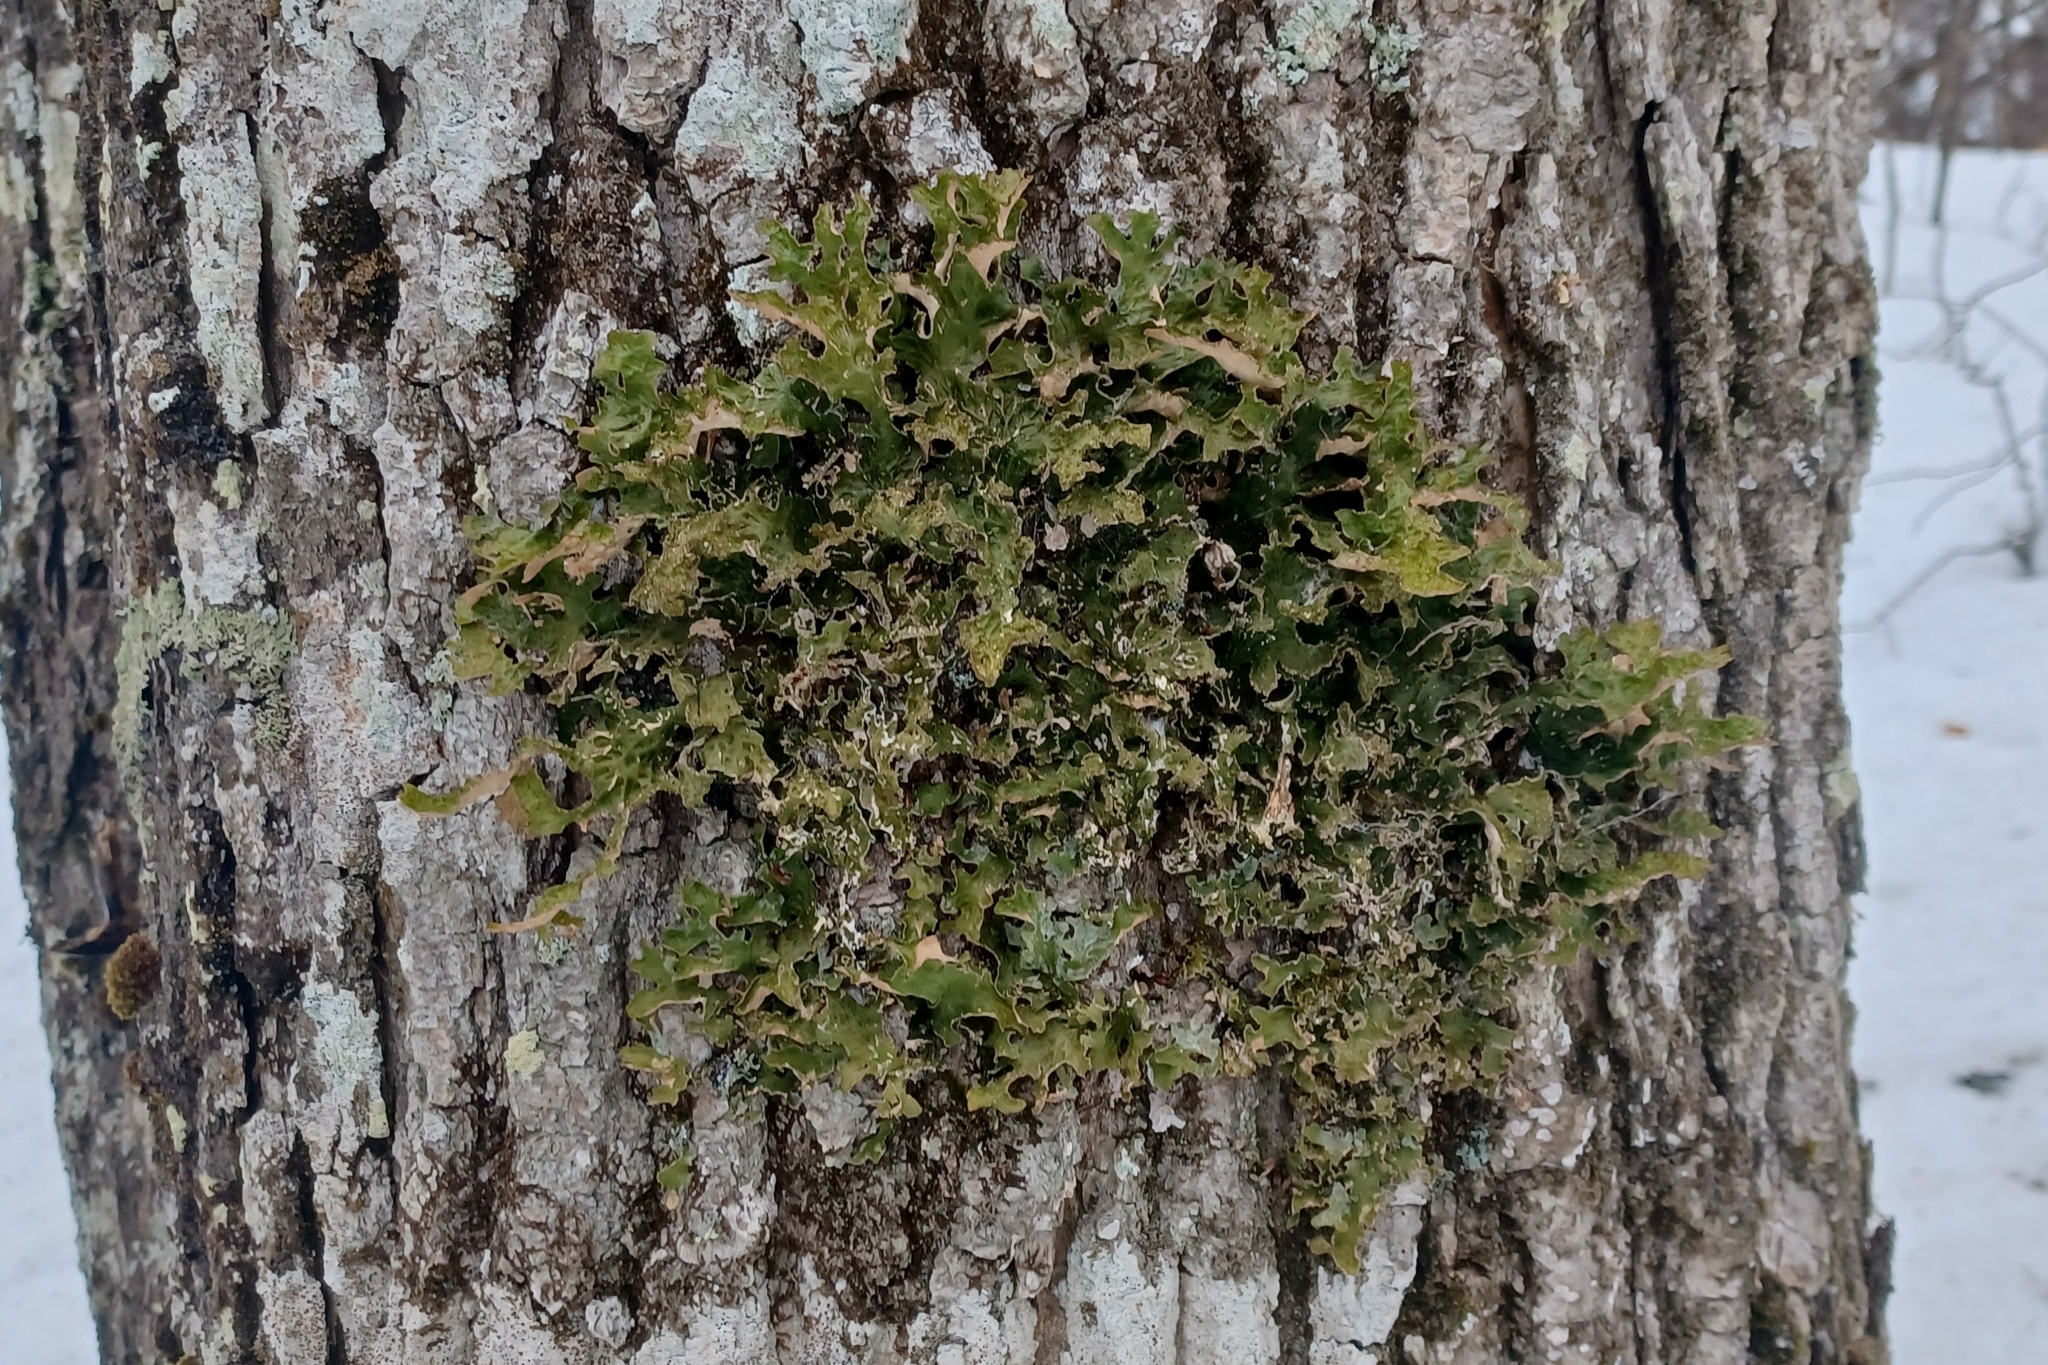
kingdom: Fungi
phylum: Ascomycota
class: Lecanoromycetes
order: Peltigerales
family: Lobariaceae
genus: Lobaria
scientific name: Lobaria pulmonaria
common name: Lungwort
